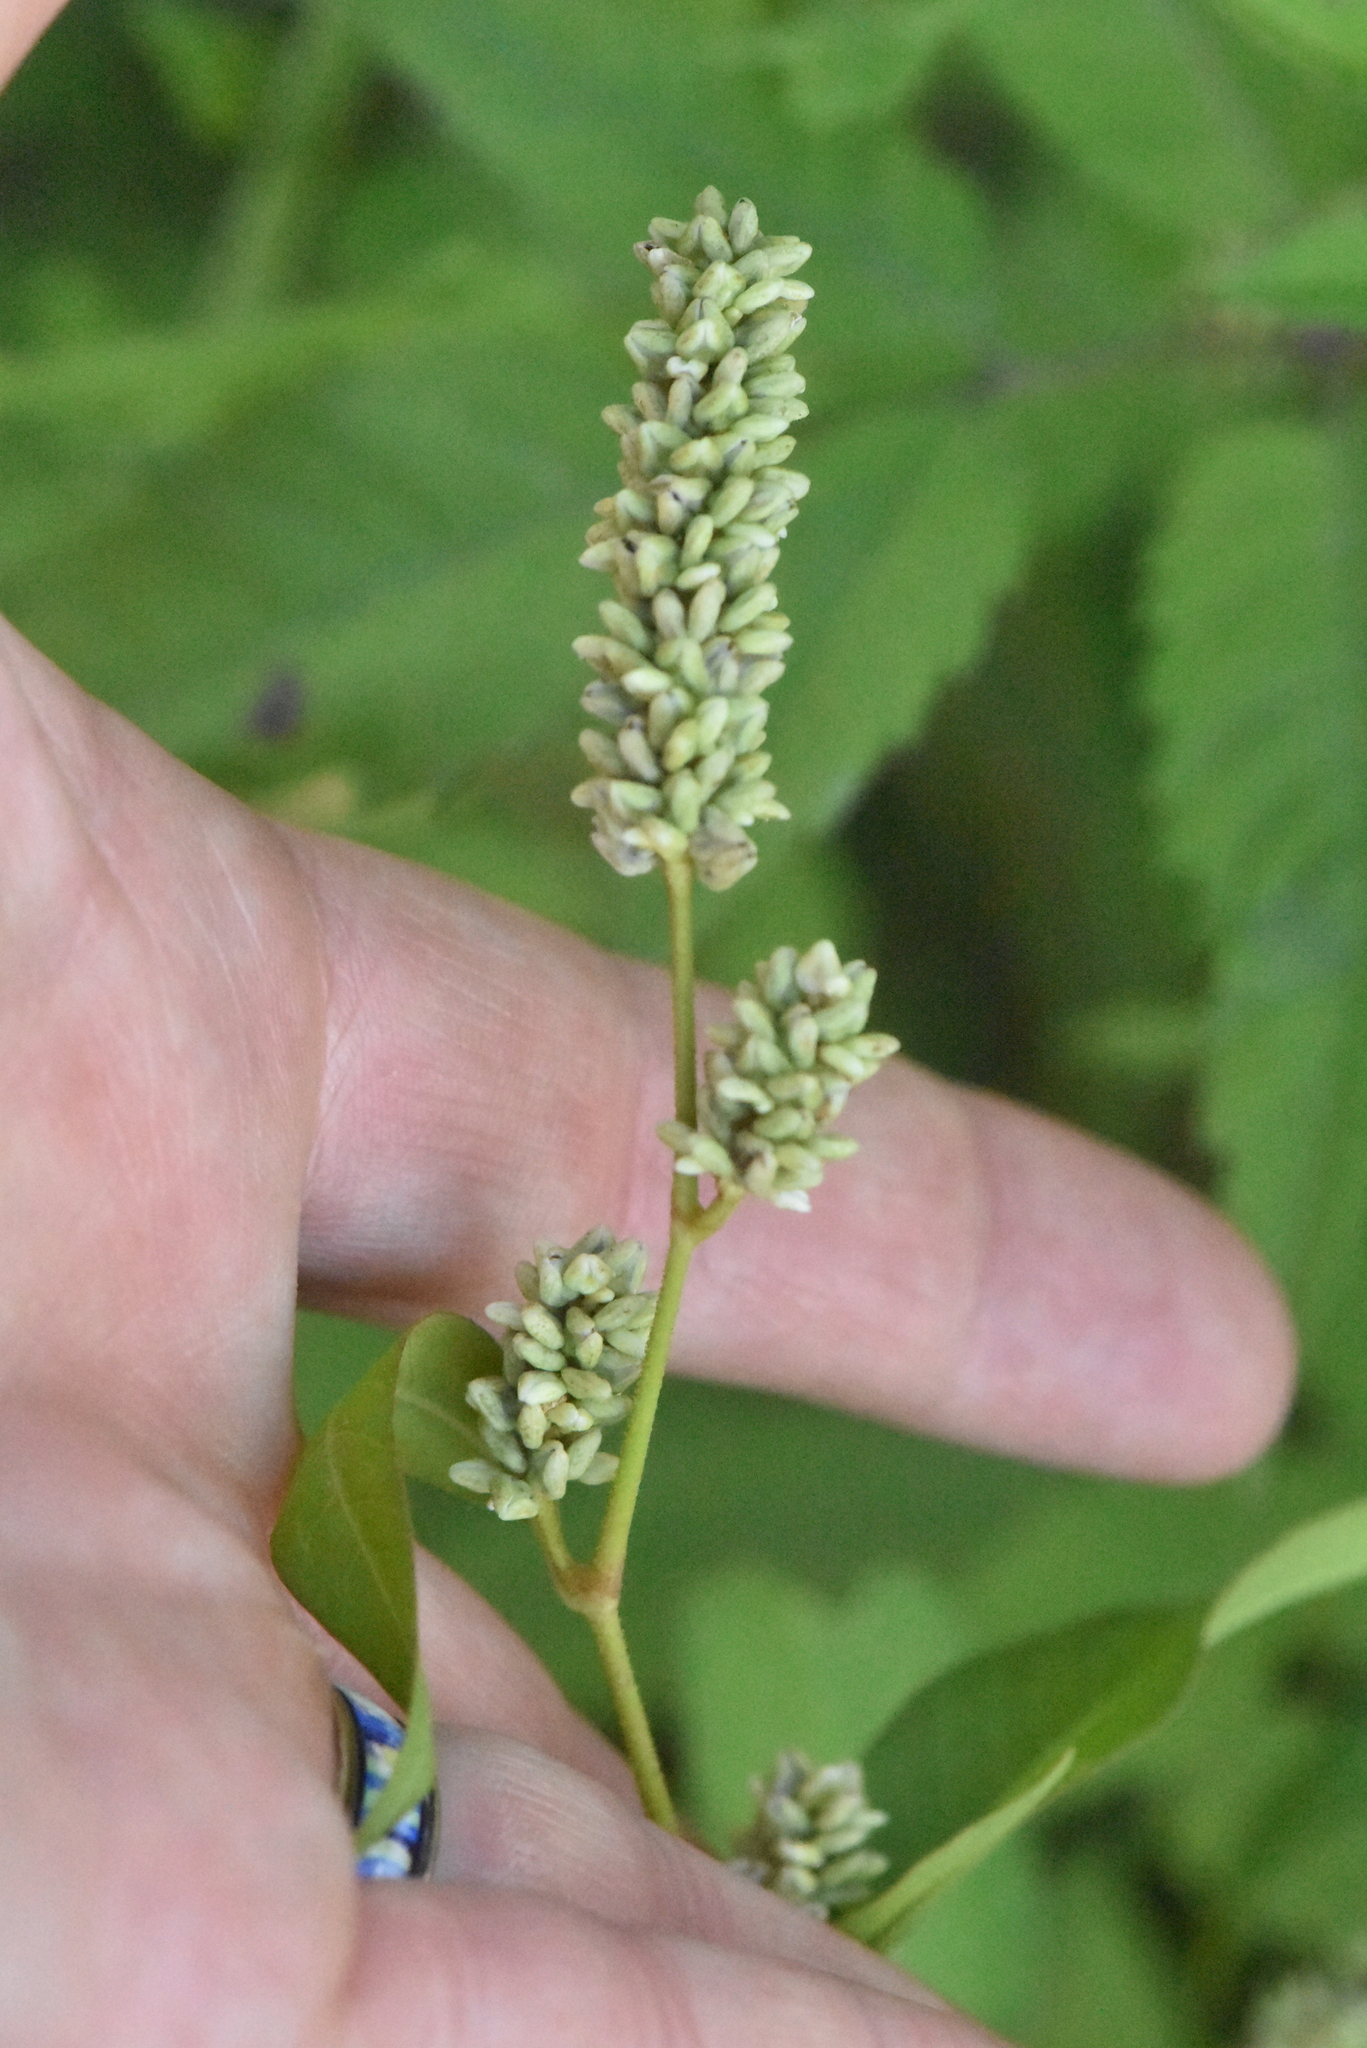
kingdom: Plantae
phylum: Tracheophyta
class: Magnoliopsida
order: Caryophyllales
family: Polygonaceae
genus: Persicaria
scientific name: Persicaria lapathifolia
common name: Curlytop knotweed
